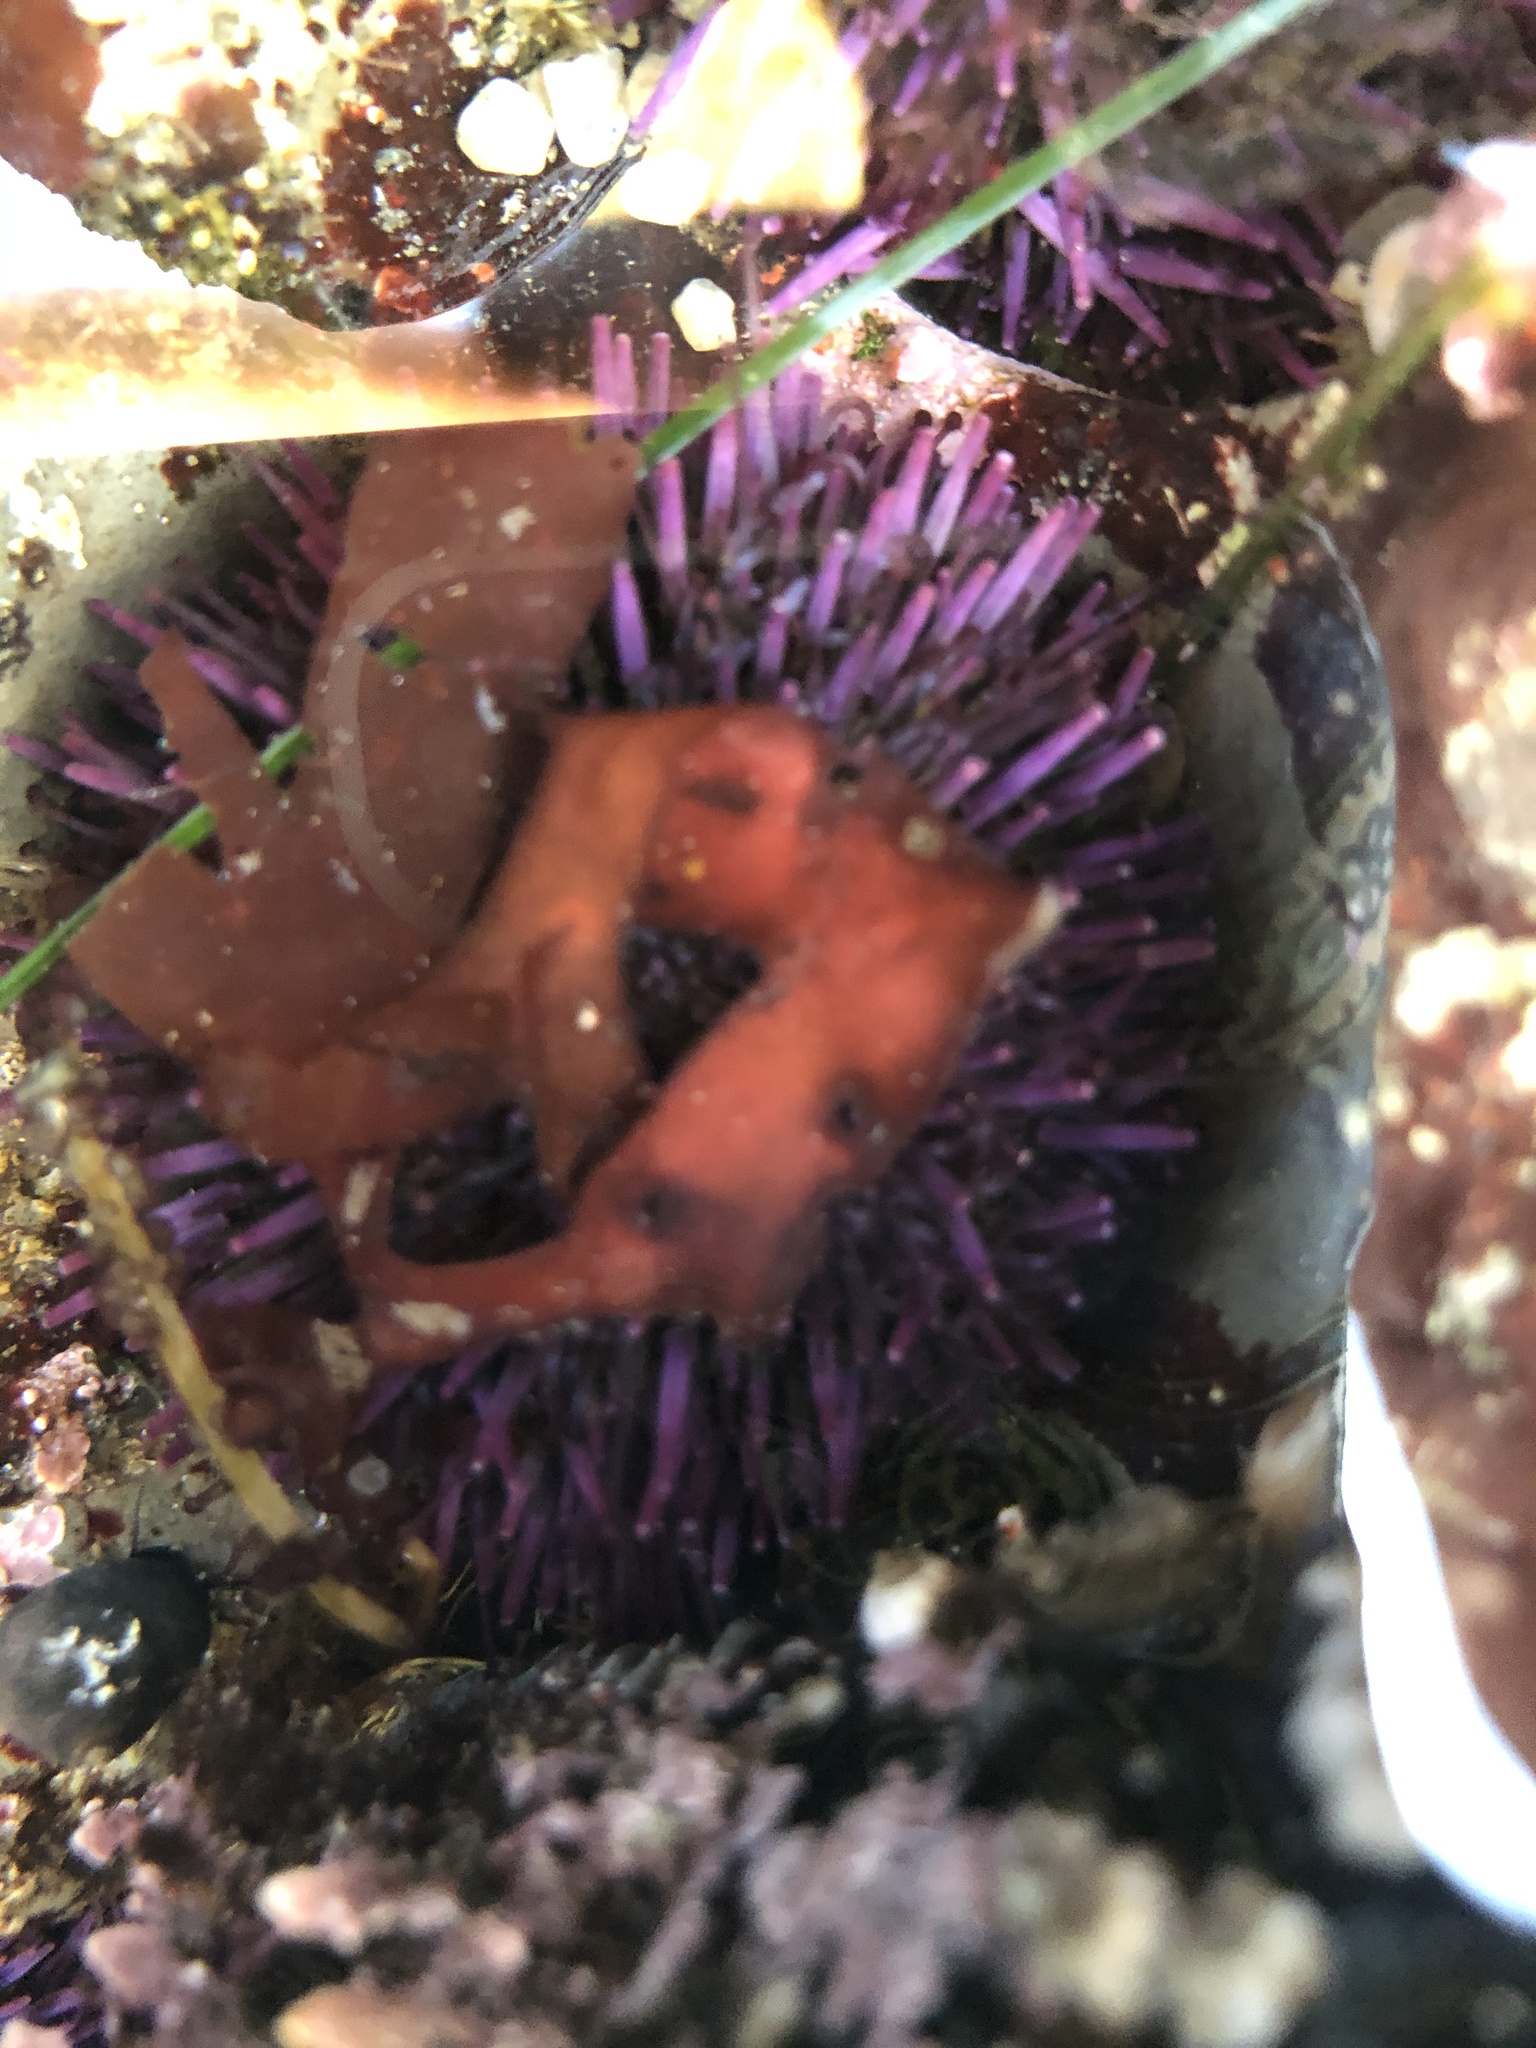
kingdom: Animalia
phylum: Echinodermata
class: Echinoidea
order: Camarodonta
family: Strongylocentrotidae
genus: Strongylocentrotus
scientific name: Strongylocentrotus purpuratus
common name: Purple sea urchin
